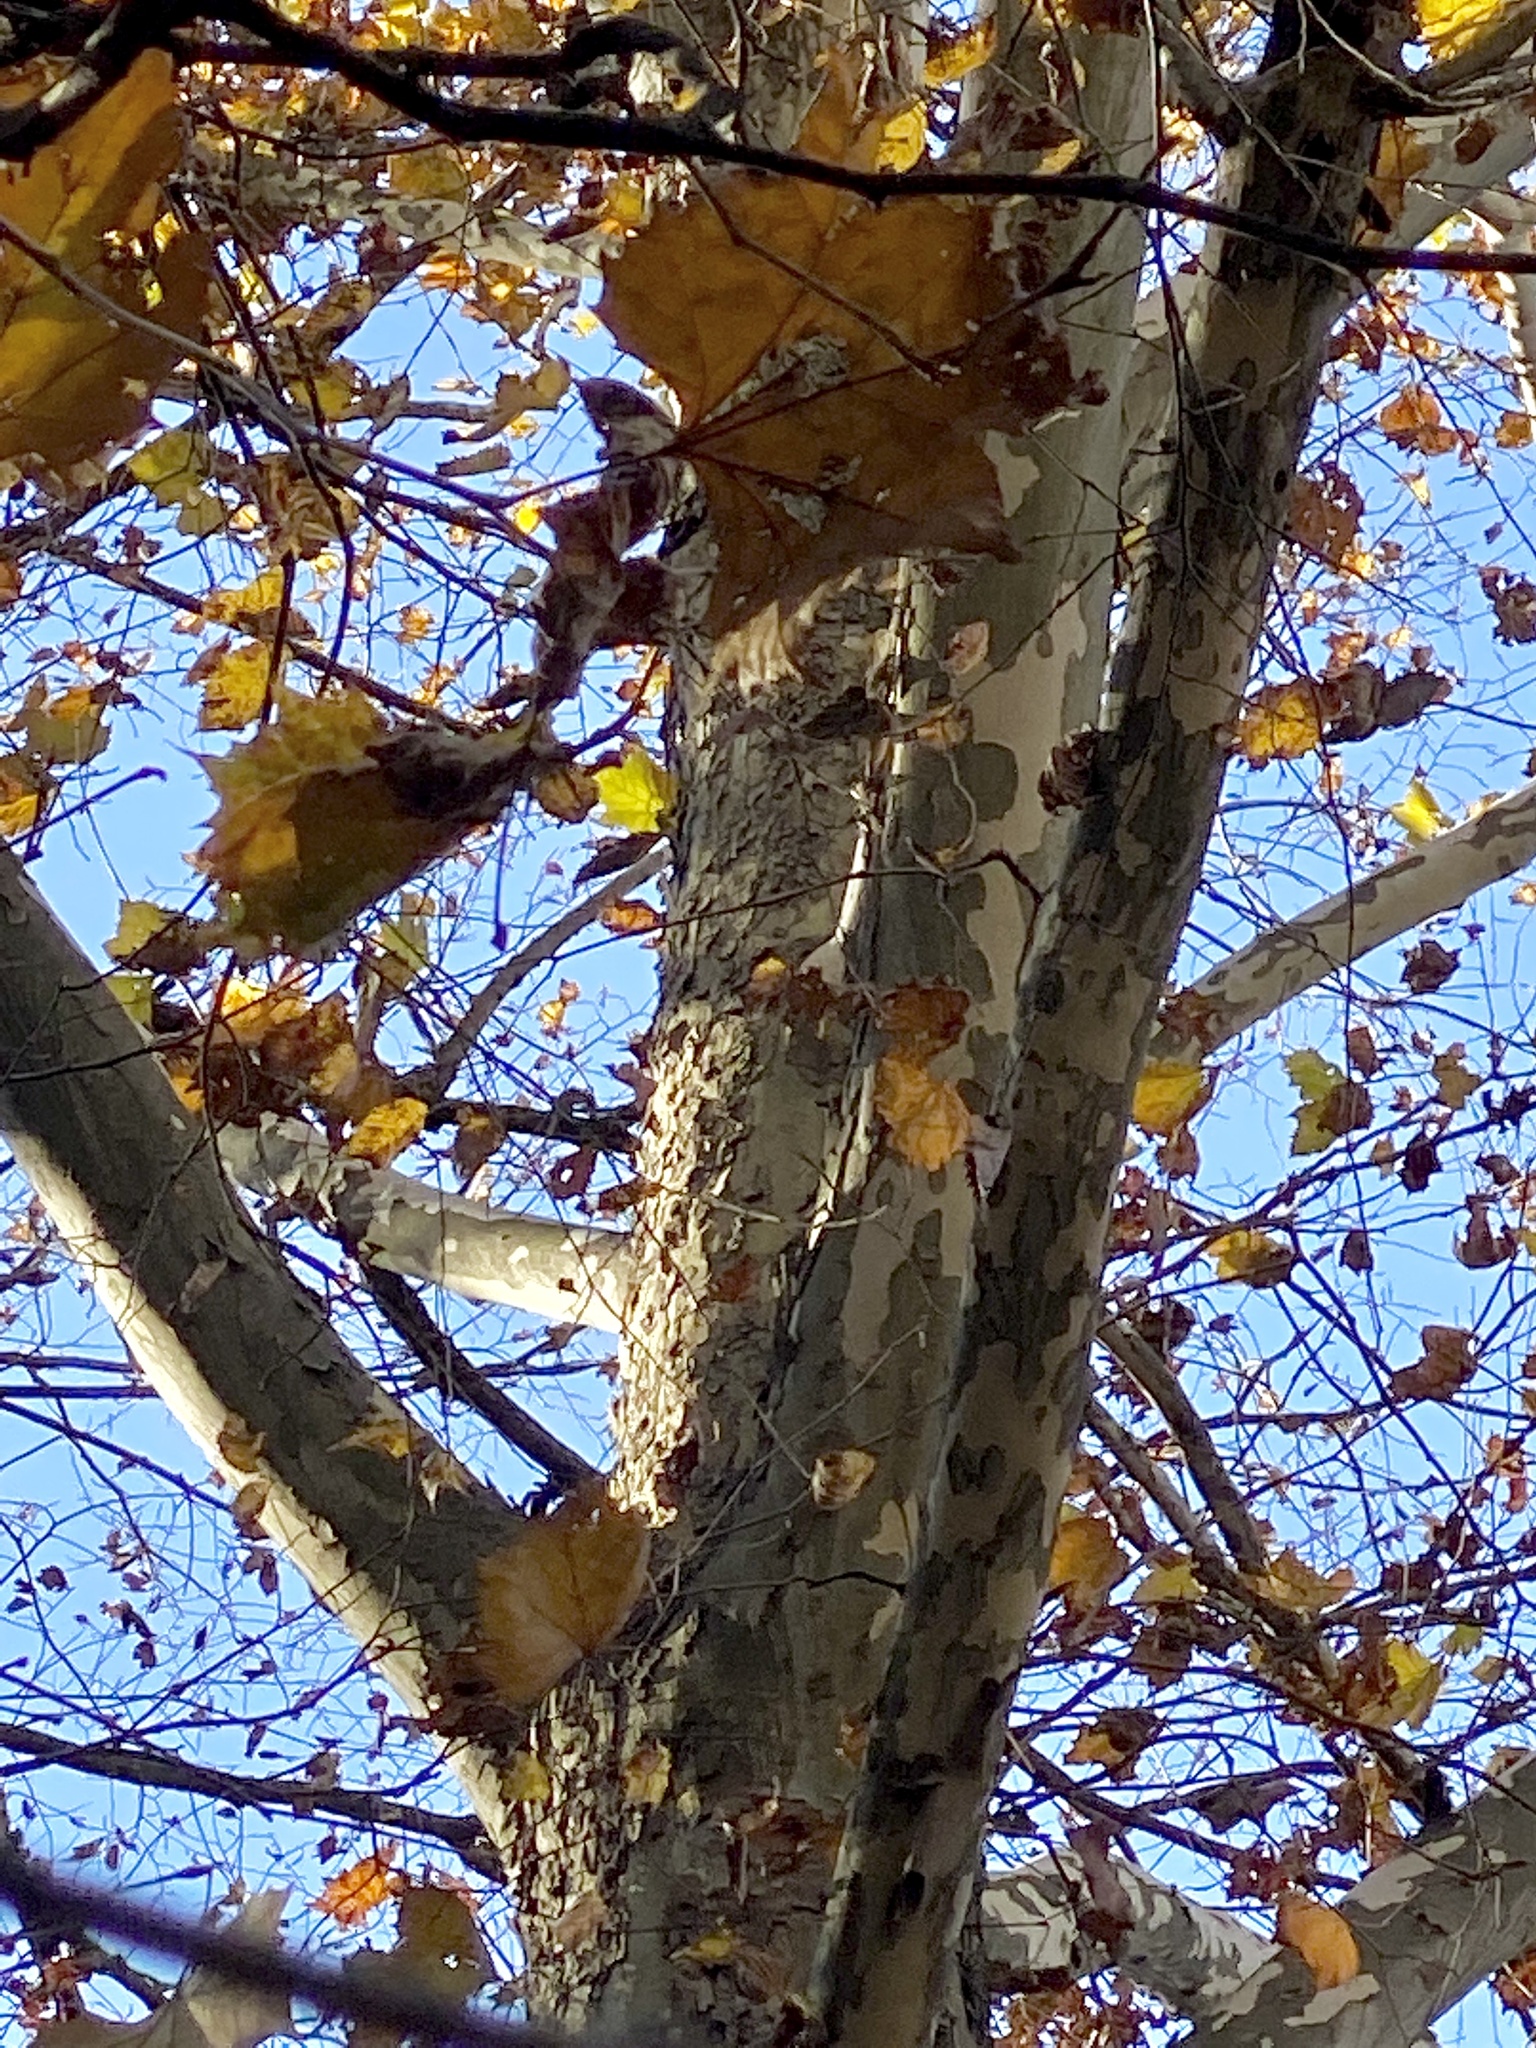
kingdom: Plantae
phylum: Tracheophyta
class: Magnoliopsida
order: Proteales
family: Platanaceae
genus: Platanus
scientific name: Platanus occidentalis
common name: American sycamore
